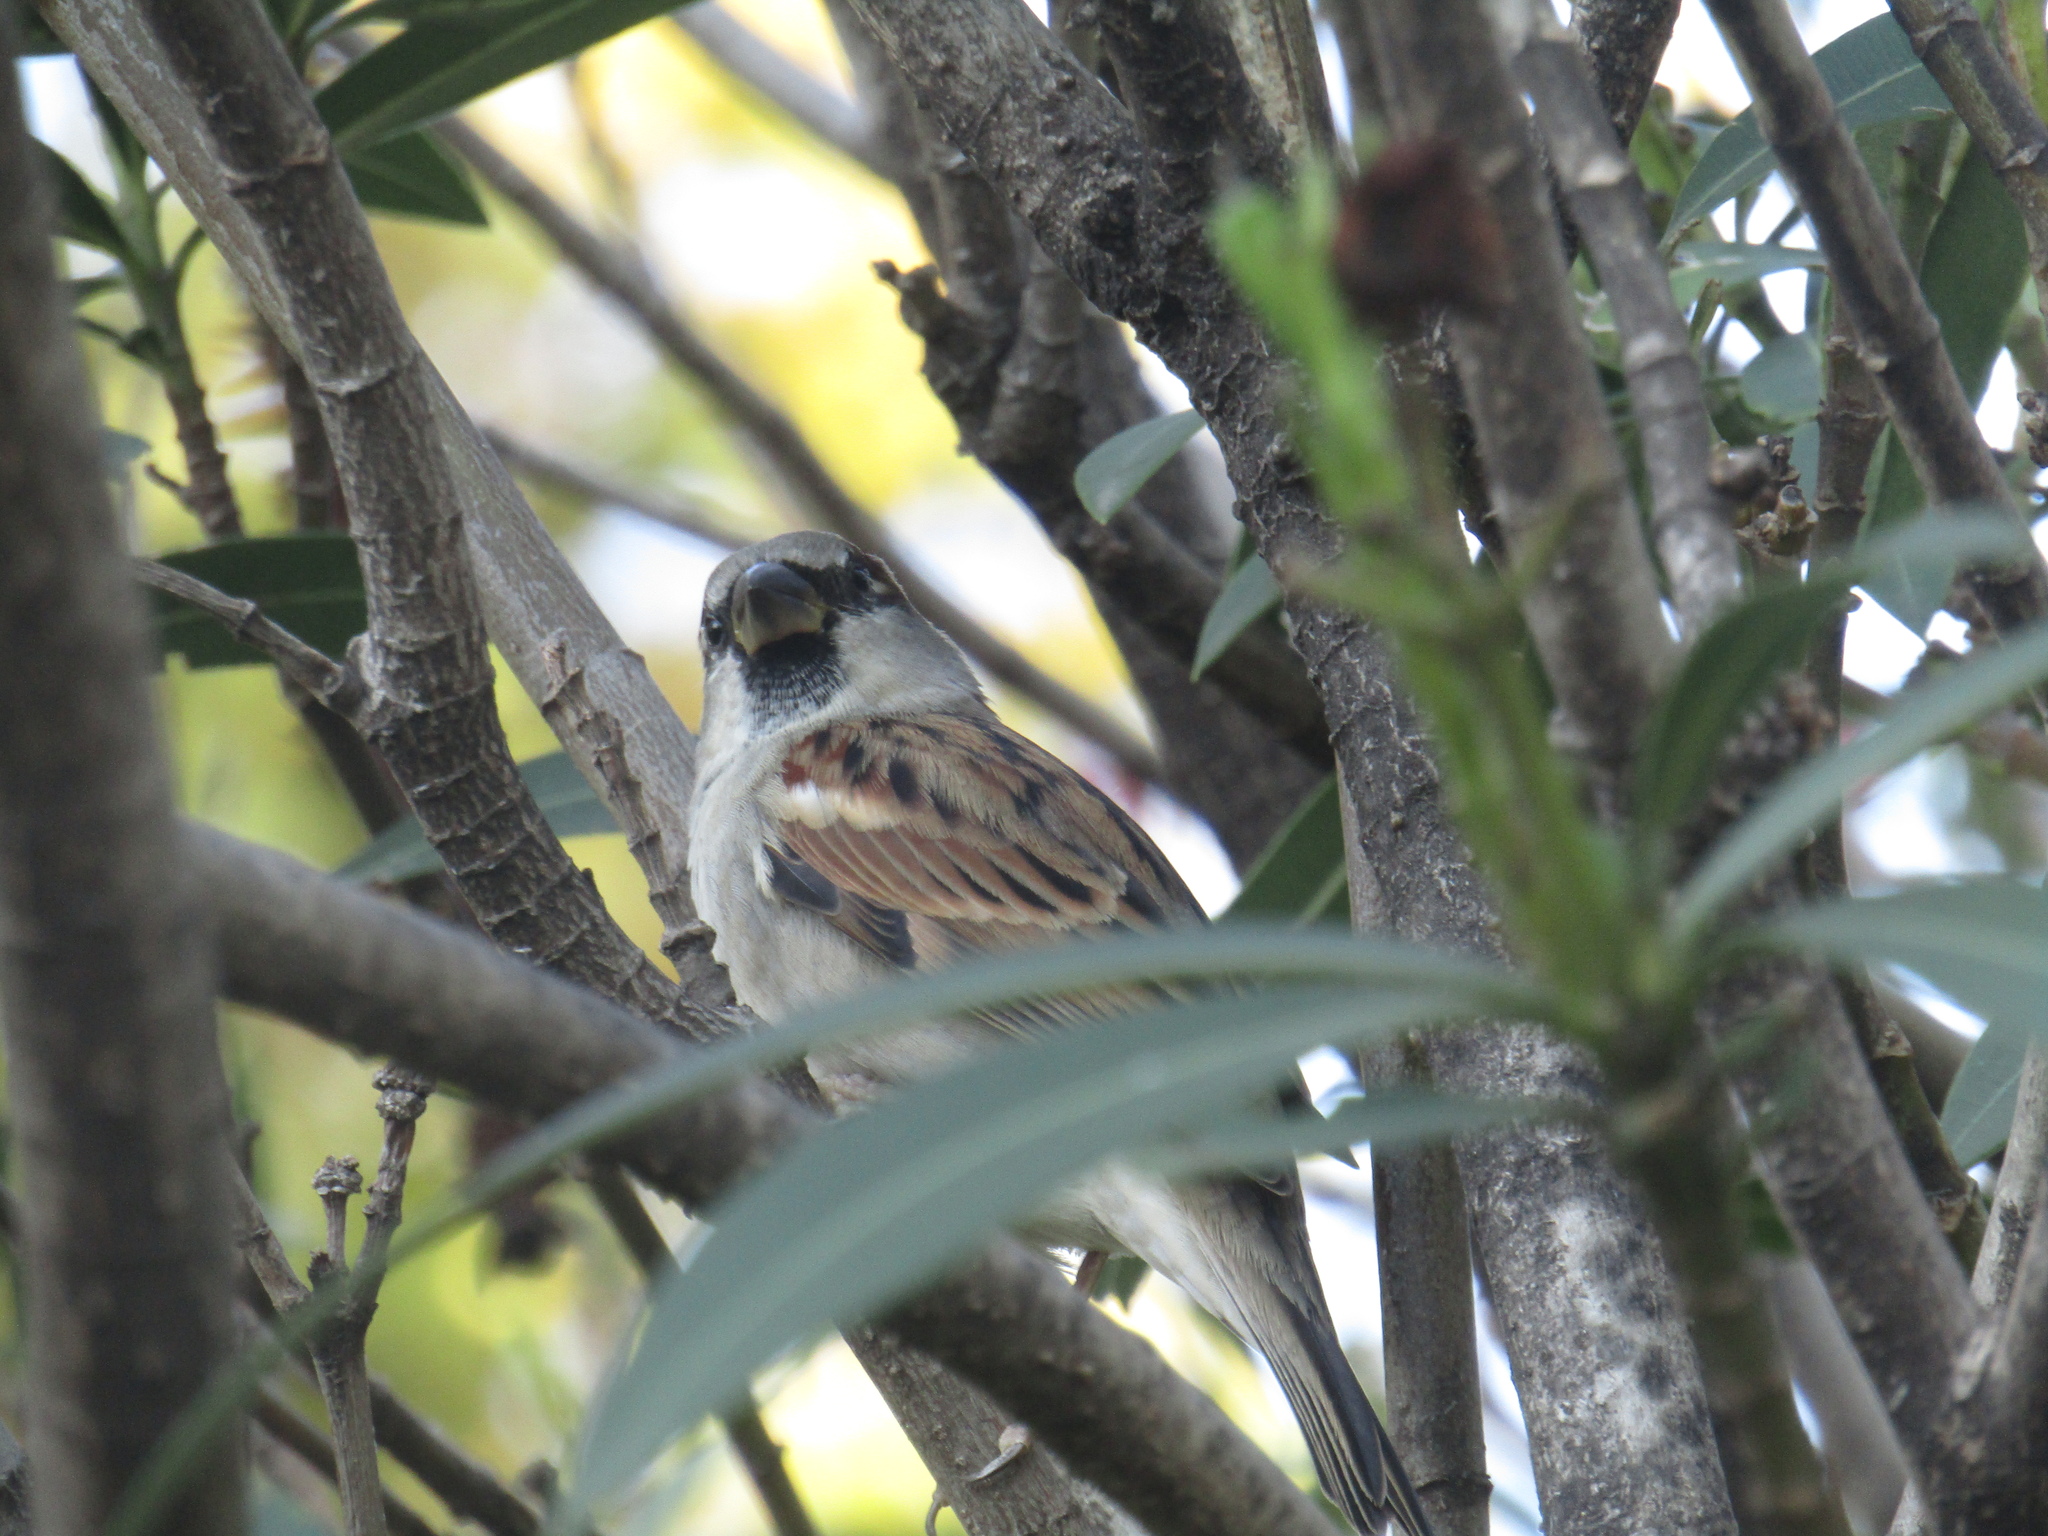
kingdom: Animalia
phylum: Chordata
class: Aves
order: Passeriformes
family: Passeridae
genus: Passer
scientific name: Passer domesticus
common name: House sparrow
